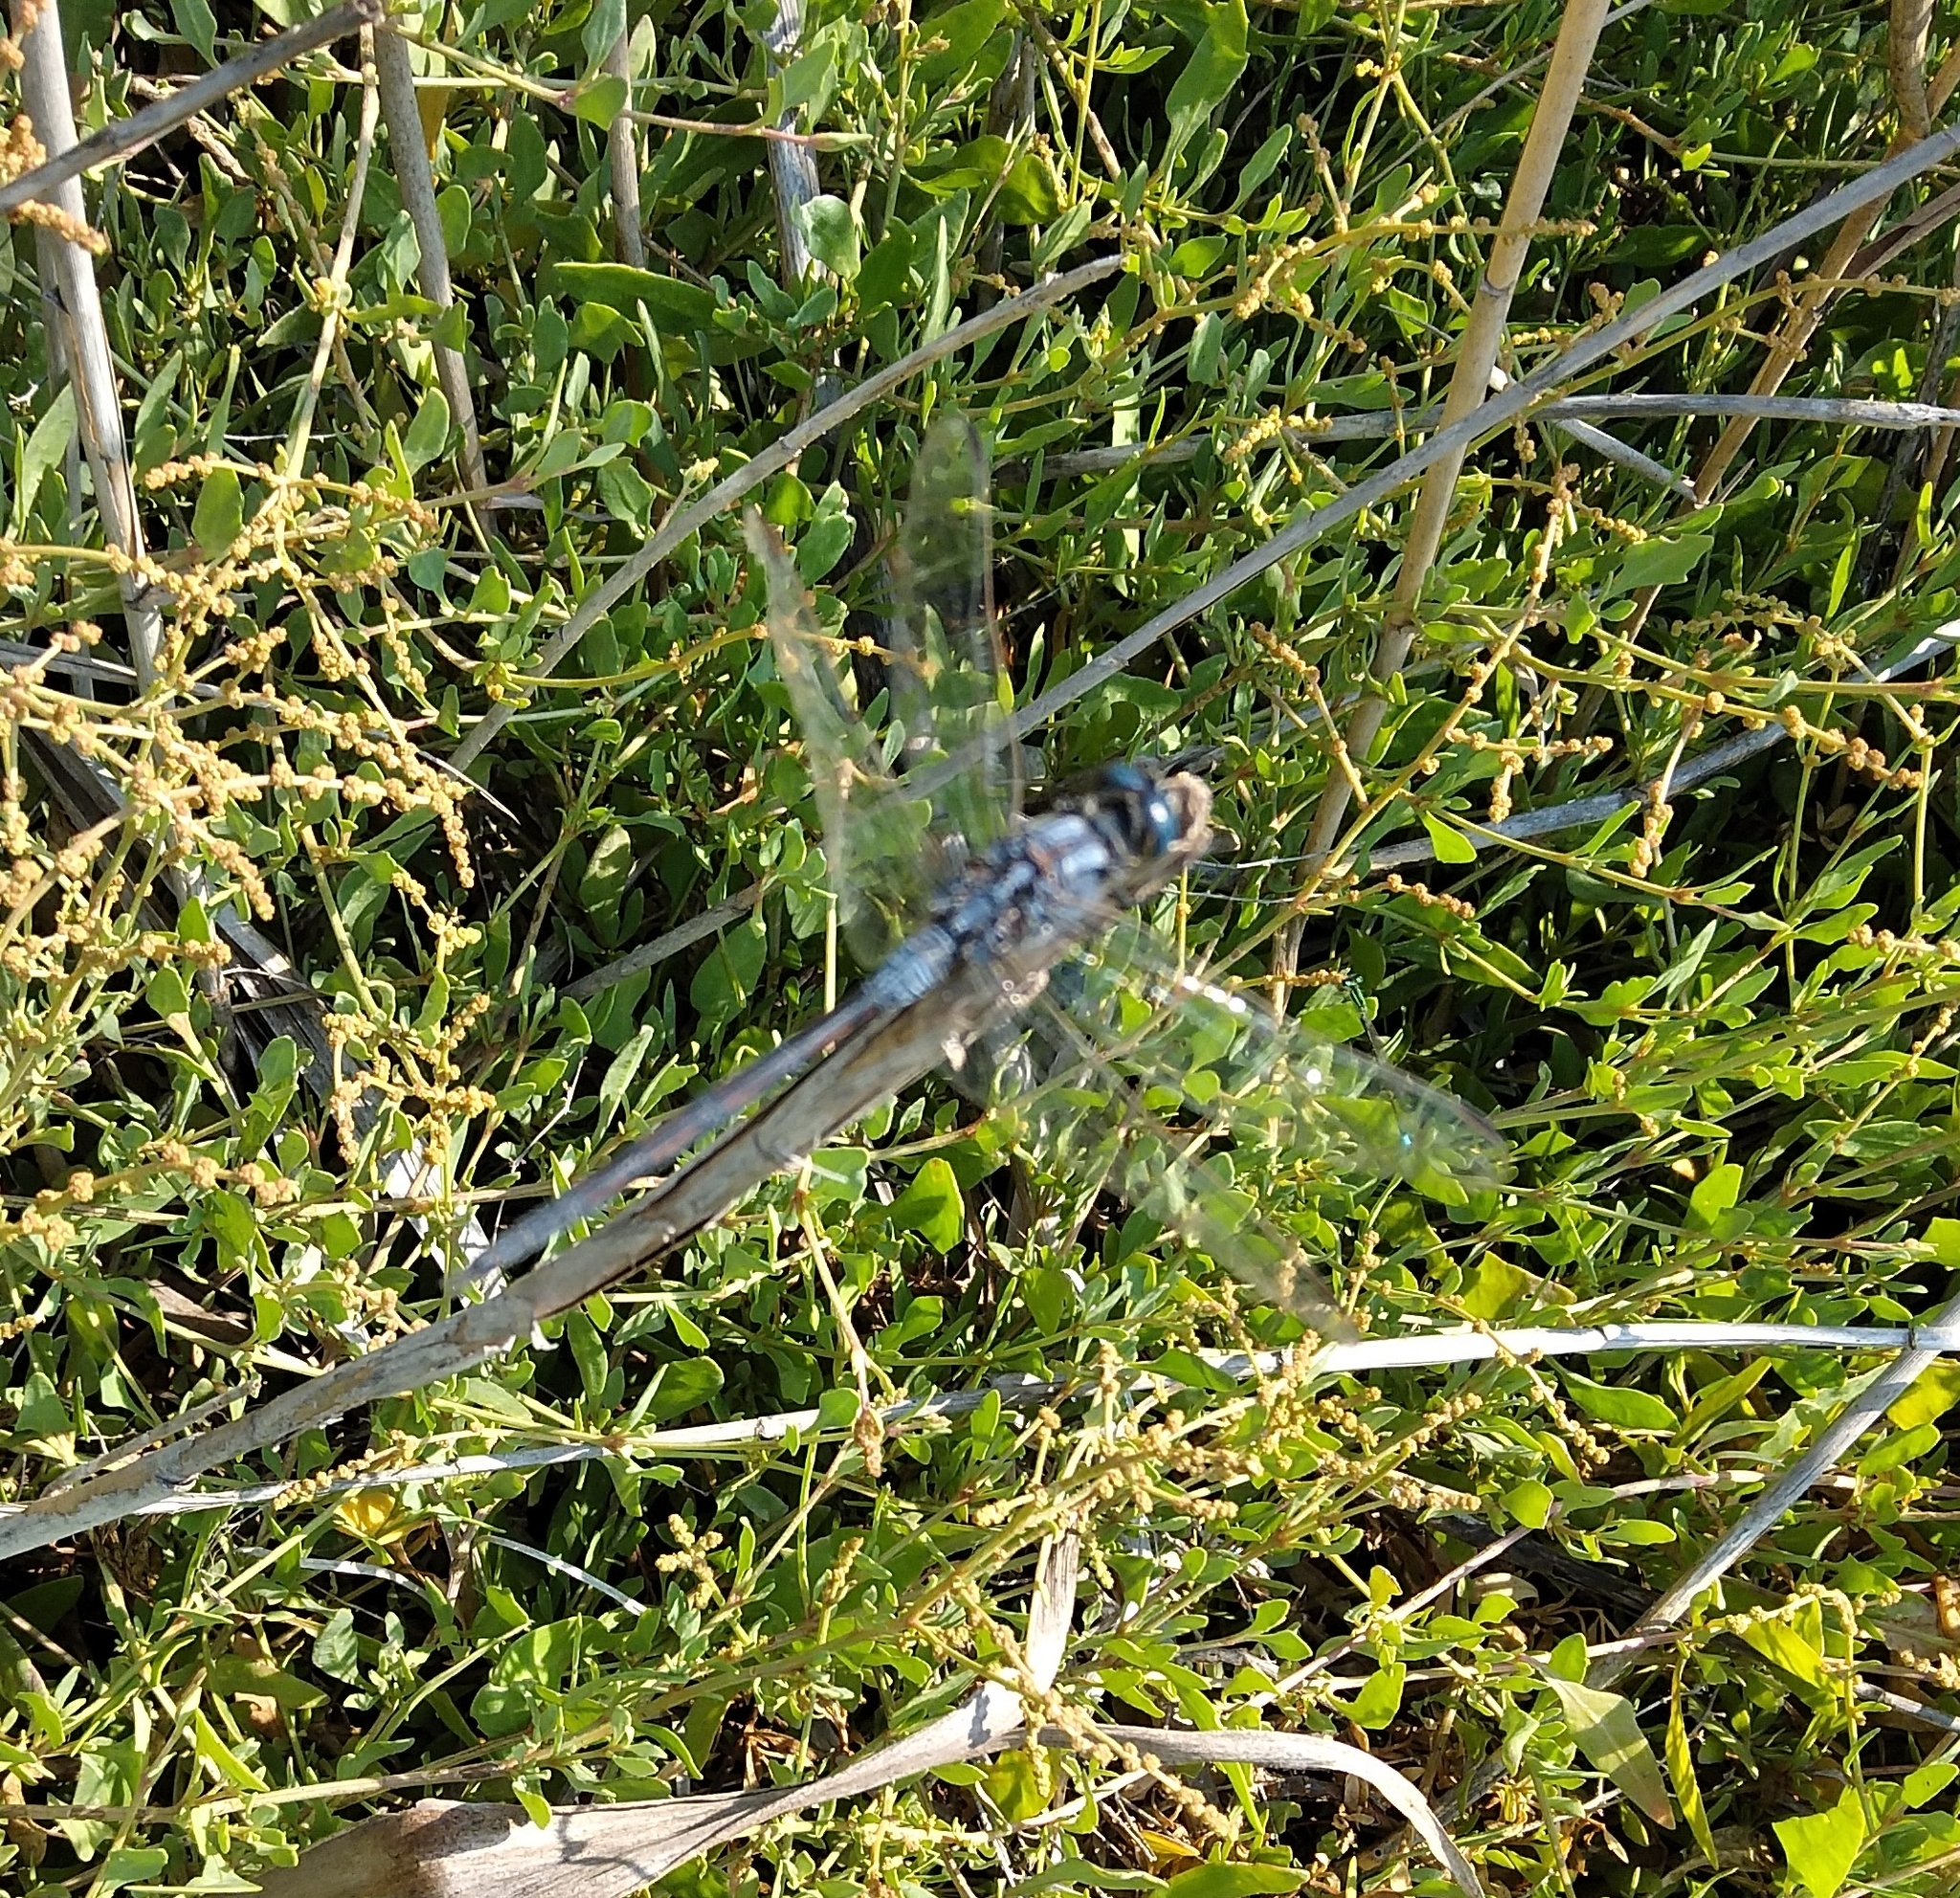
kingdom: Animalia
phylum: Arthropoda
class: Insecta
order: Odonata
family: Libellulidae
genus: Orthetrum
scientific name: Orthetrum trinacria
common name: Long skimmer
